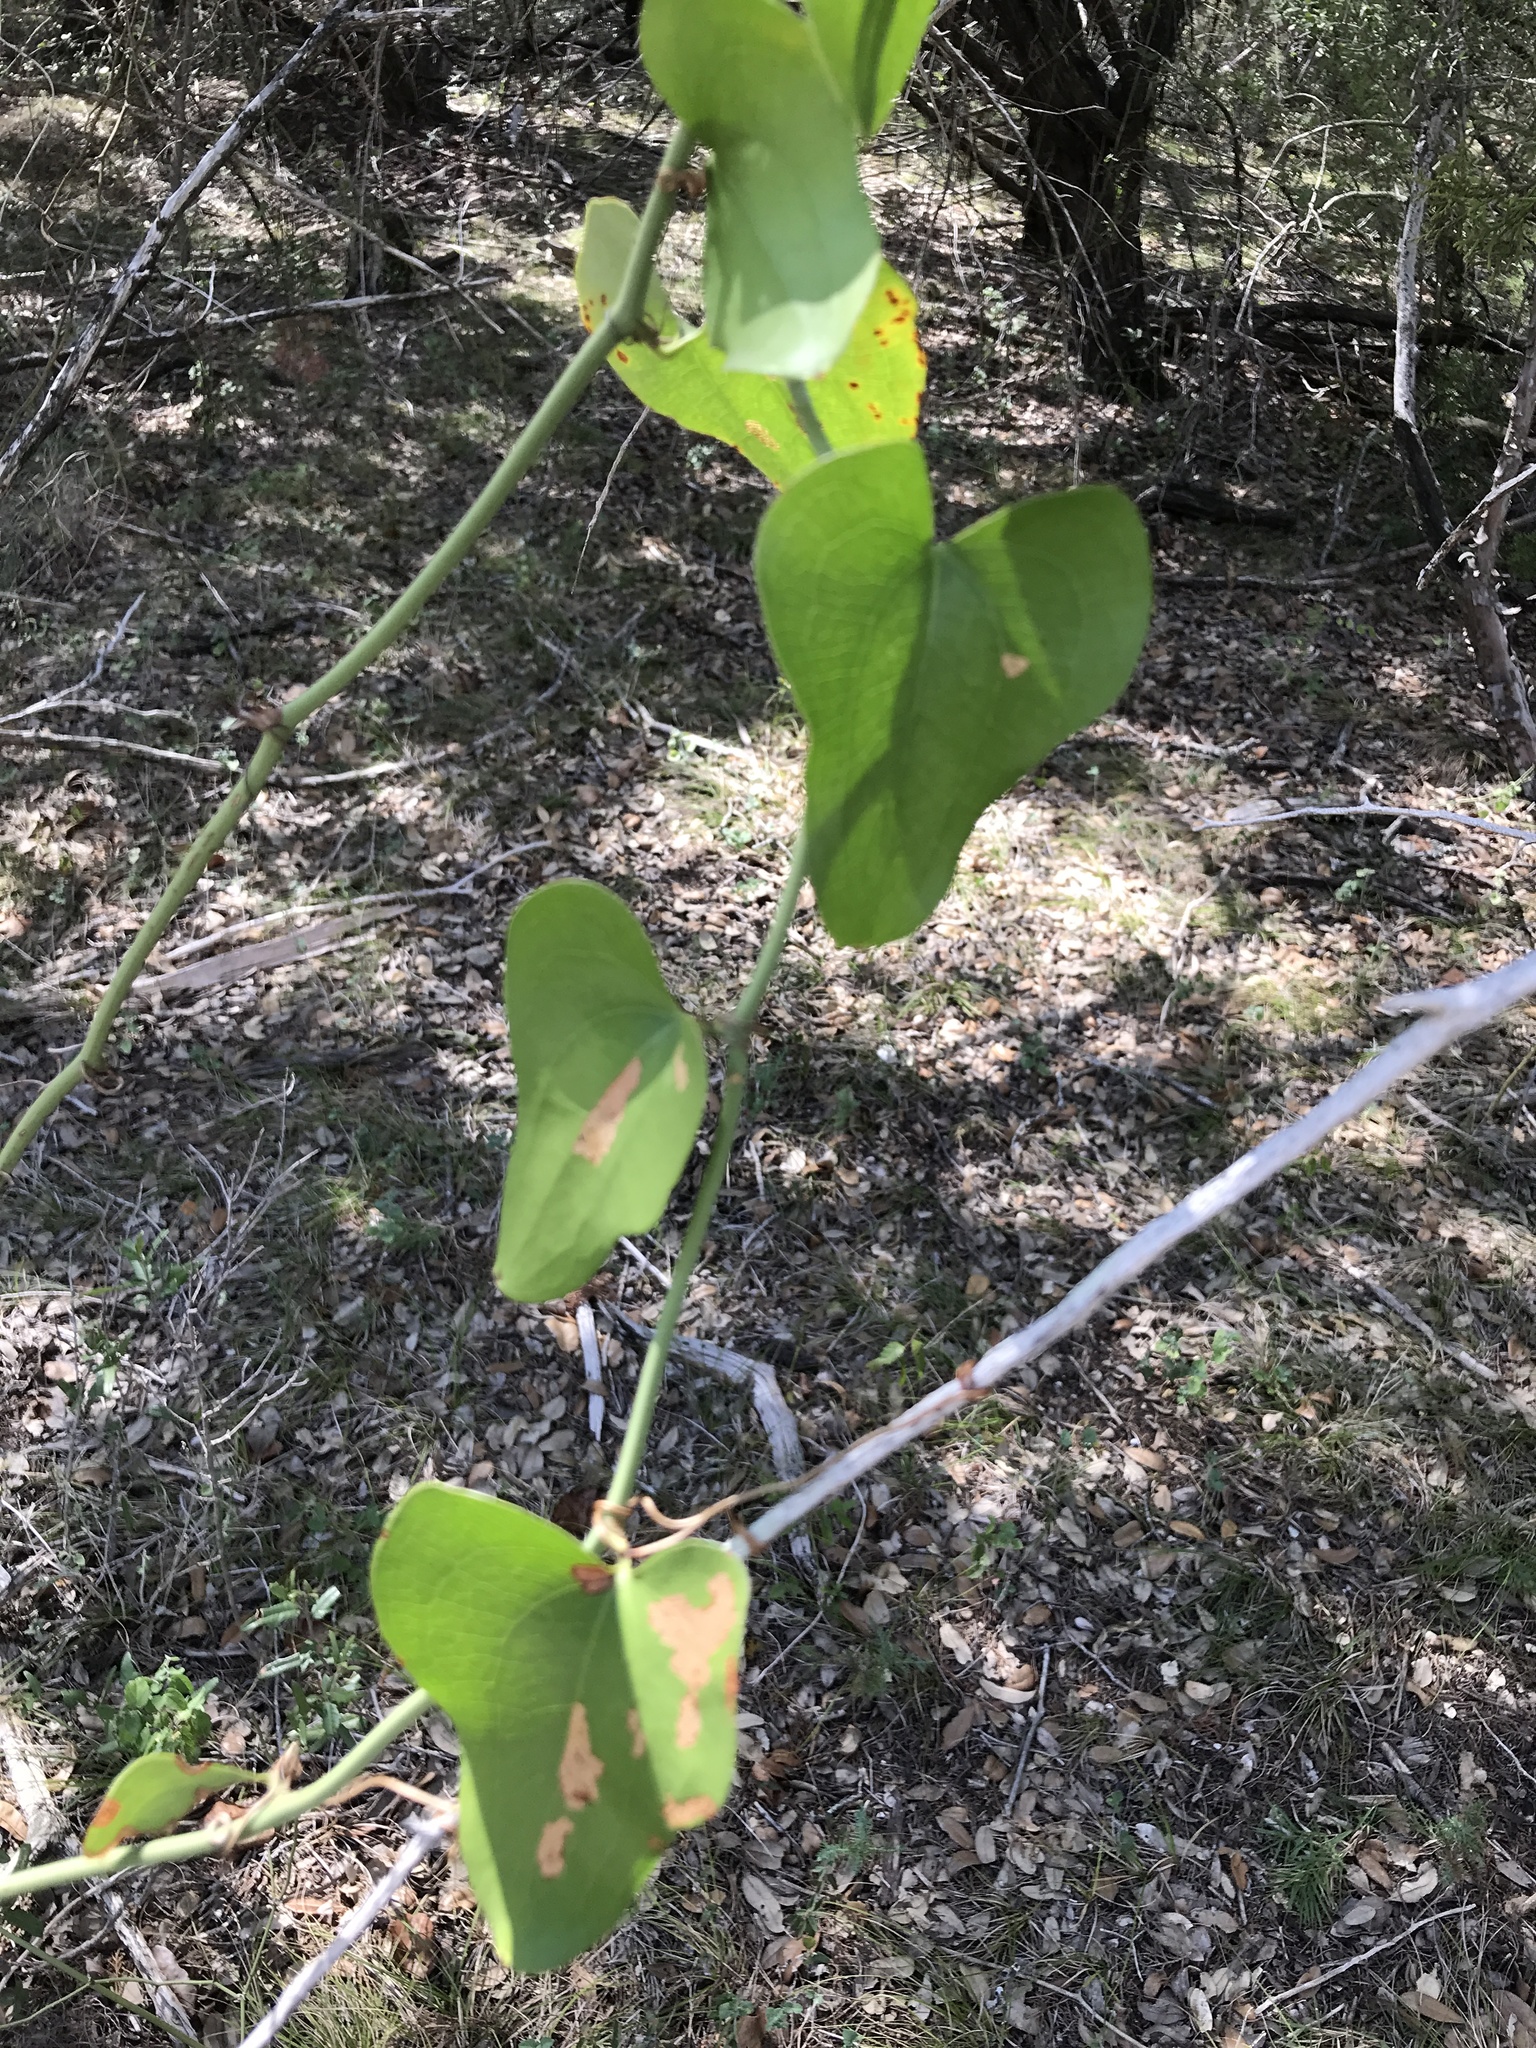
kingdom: Plantae
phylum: Tracheophyta
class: Liliopsida
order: Liliales
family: Smilacaceae
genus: Smilax
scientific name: Smilax bona-nox
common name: Catbrier
